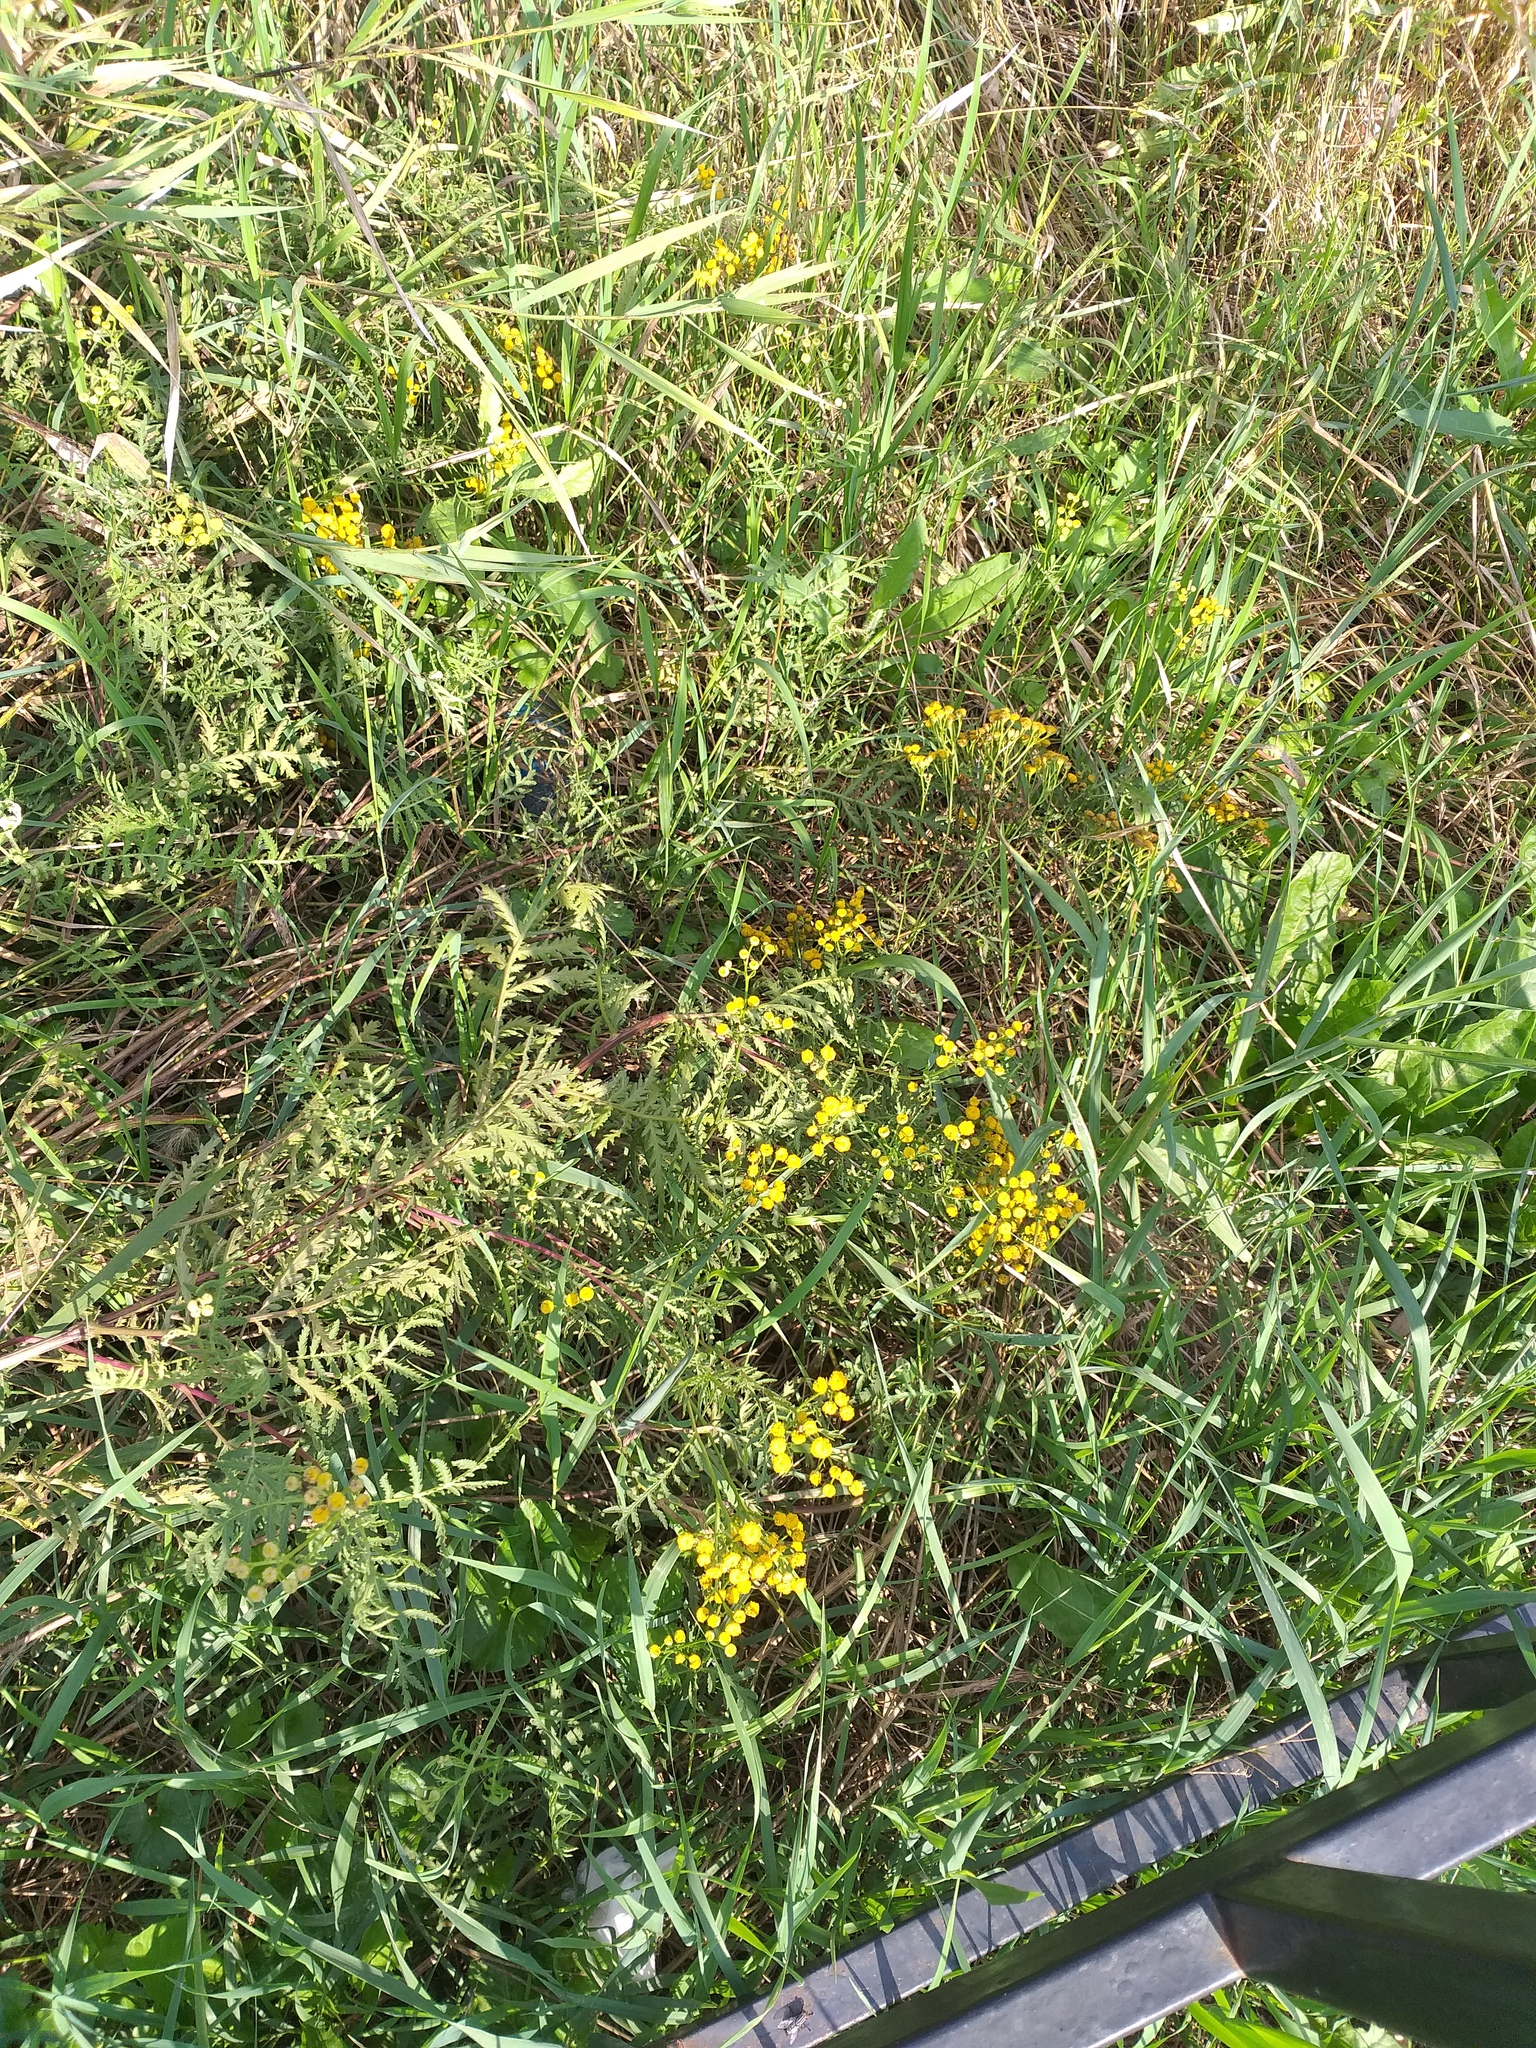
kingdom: Plantae
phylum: Tracheophyta
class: Magnoliopsida
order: Asterales
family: Asteraceae
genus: Tanacetum
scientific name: Tanacetum vulgare
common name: Common tansy
